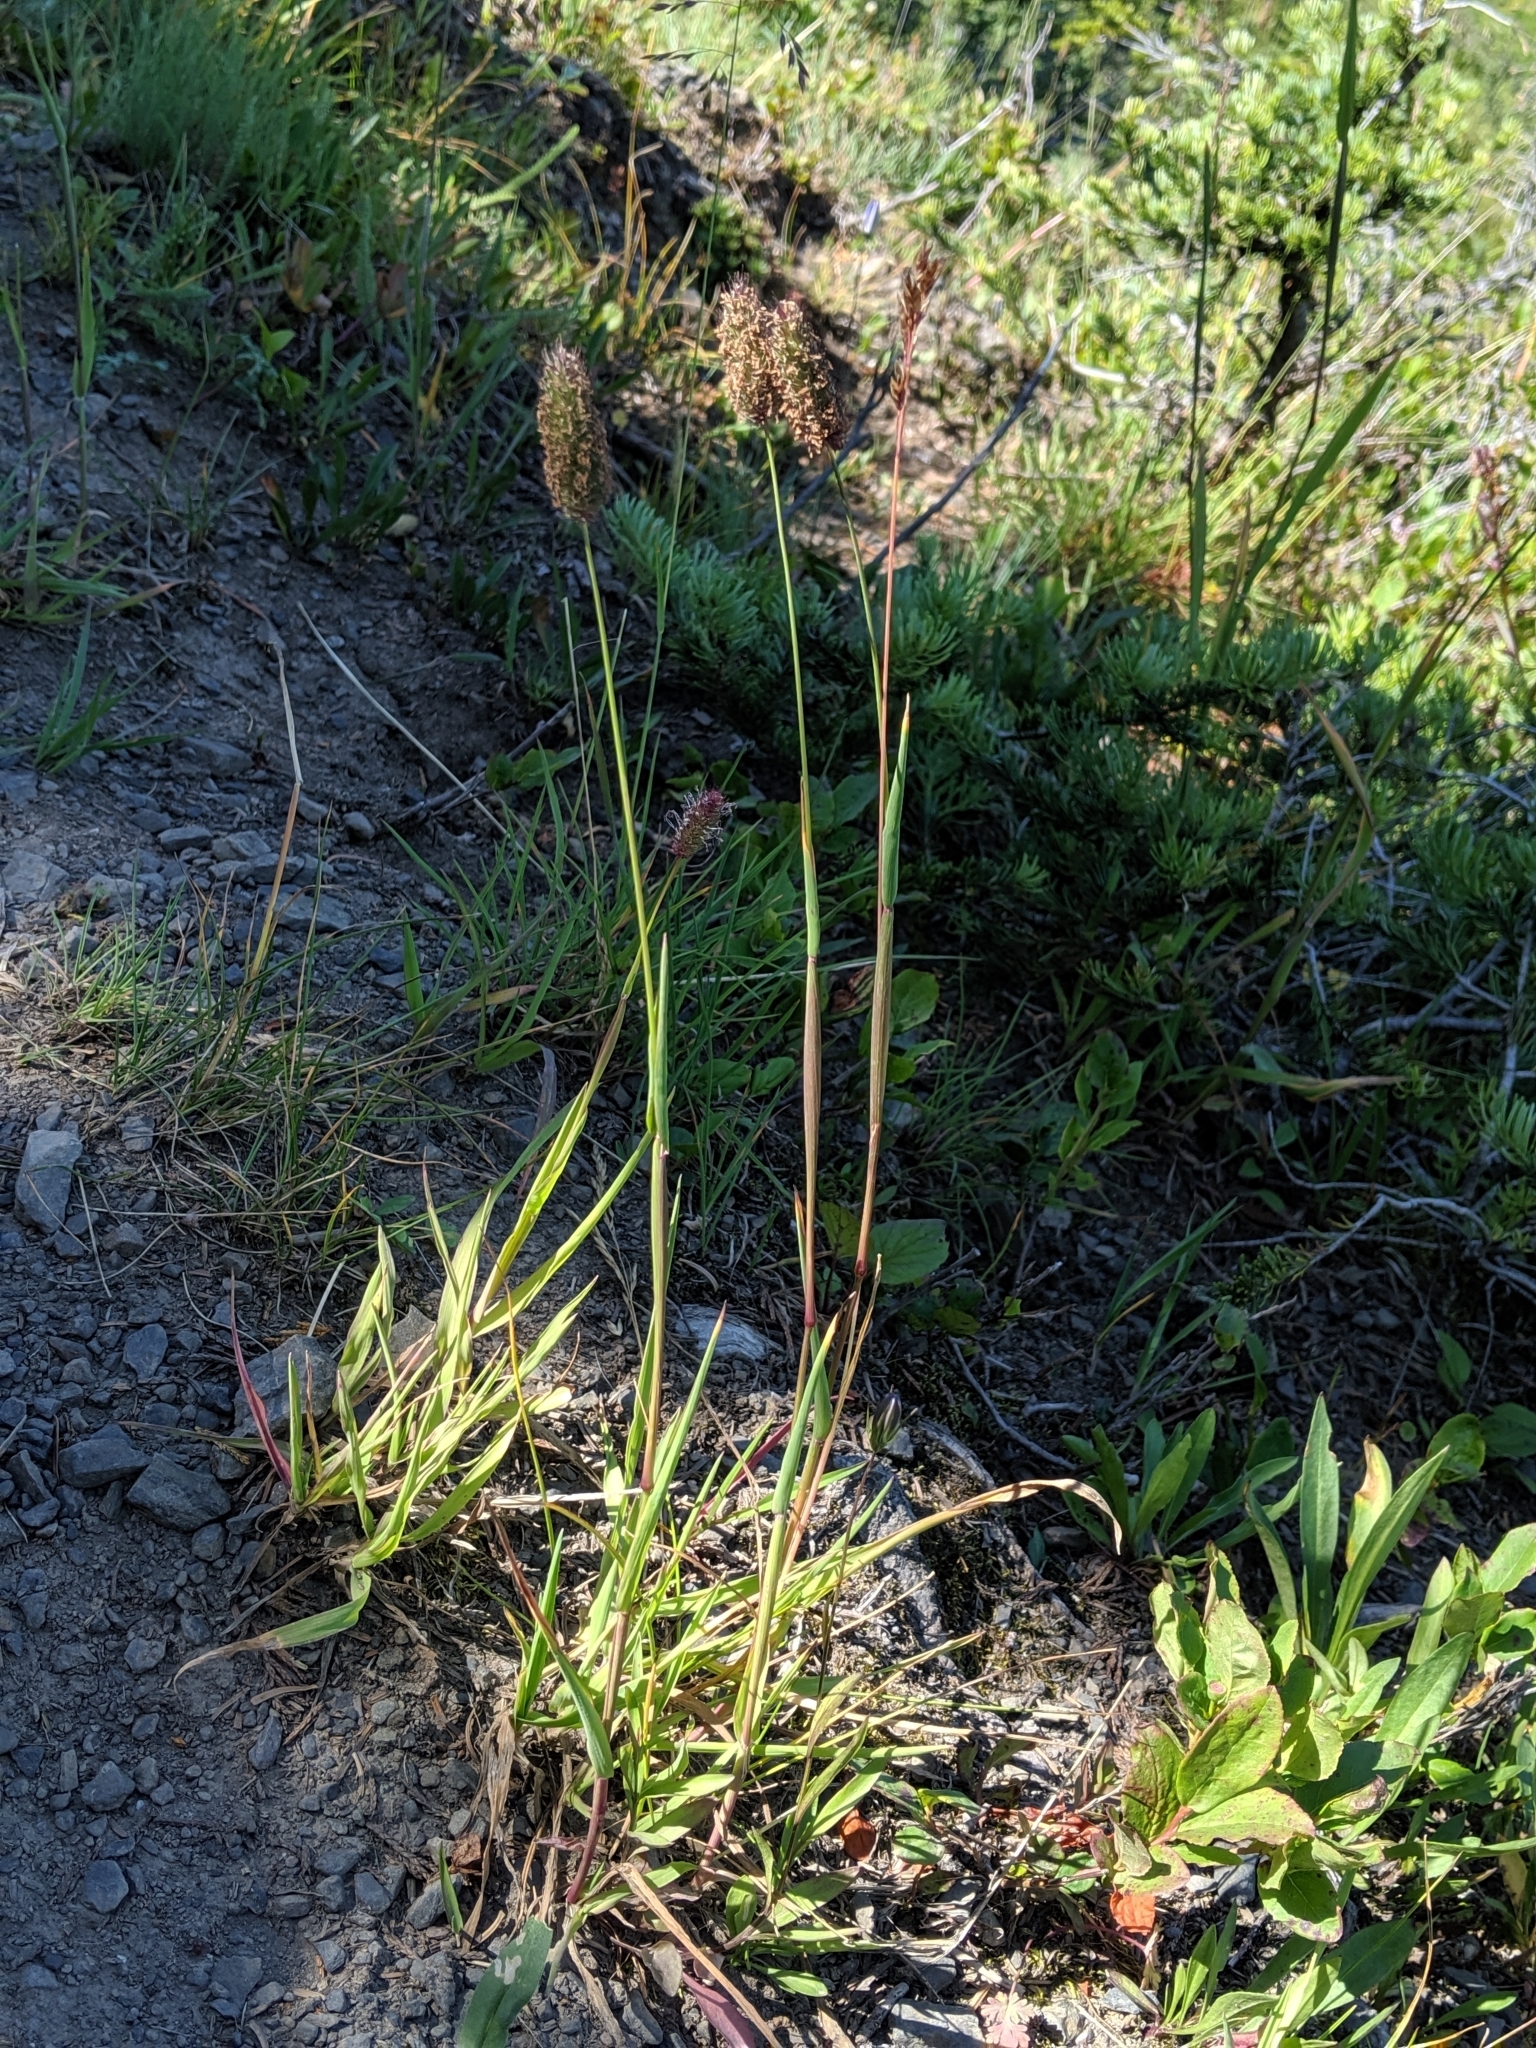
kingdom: Plantae
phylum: Tracheophyta
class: Liliopsida
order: Poales
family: Poaceae
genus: Phleum
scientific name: Phleum alpinum
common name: Alpine cat's-tail
